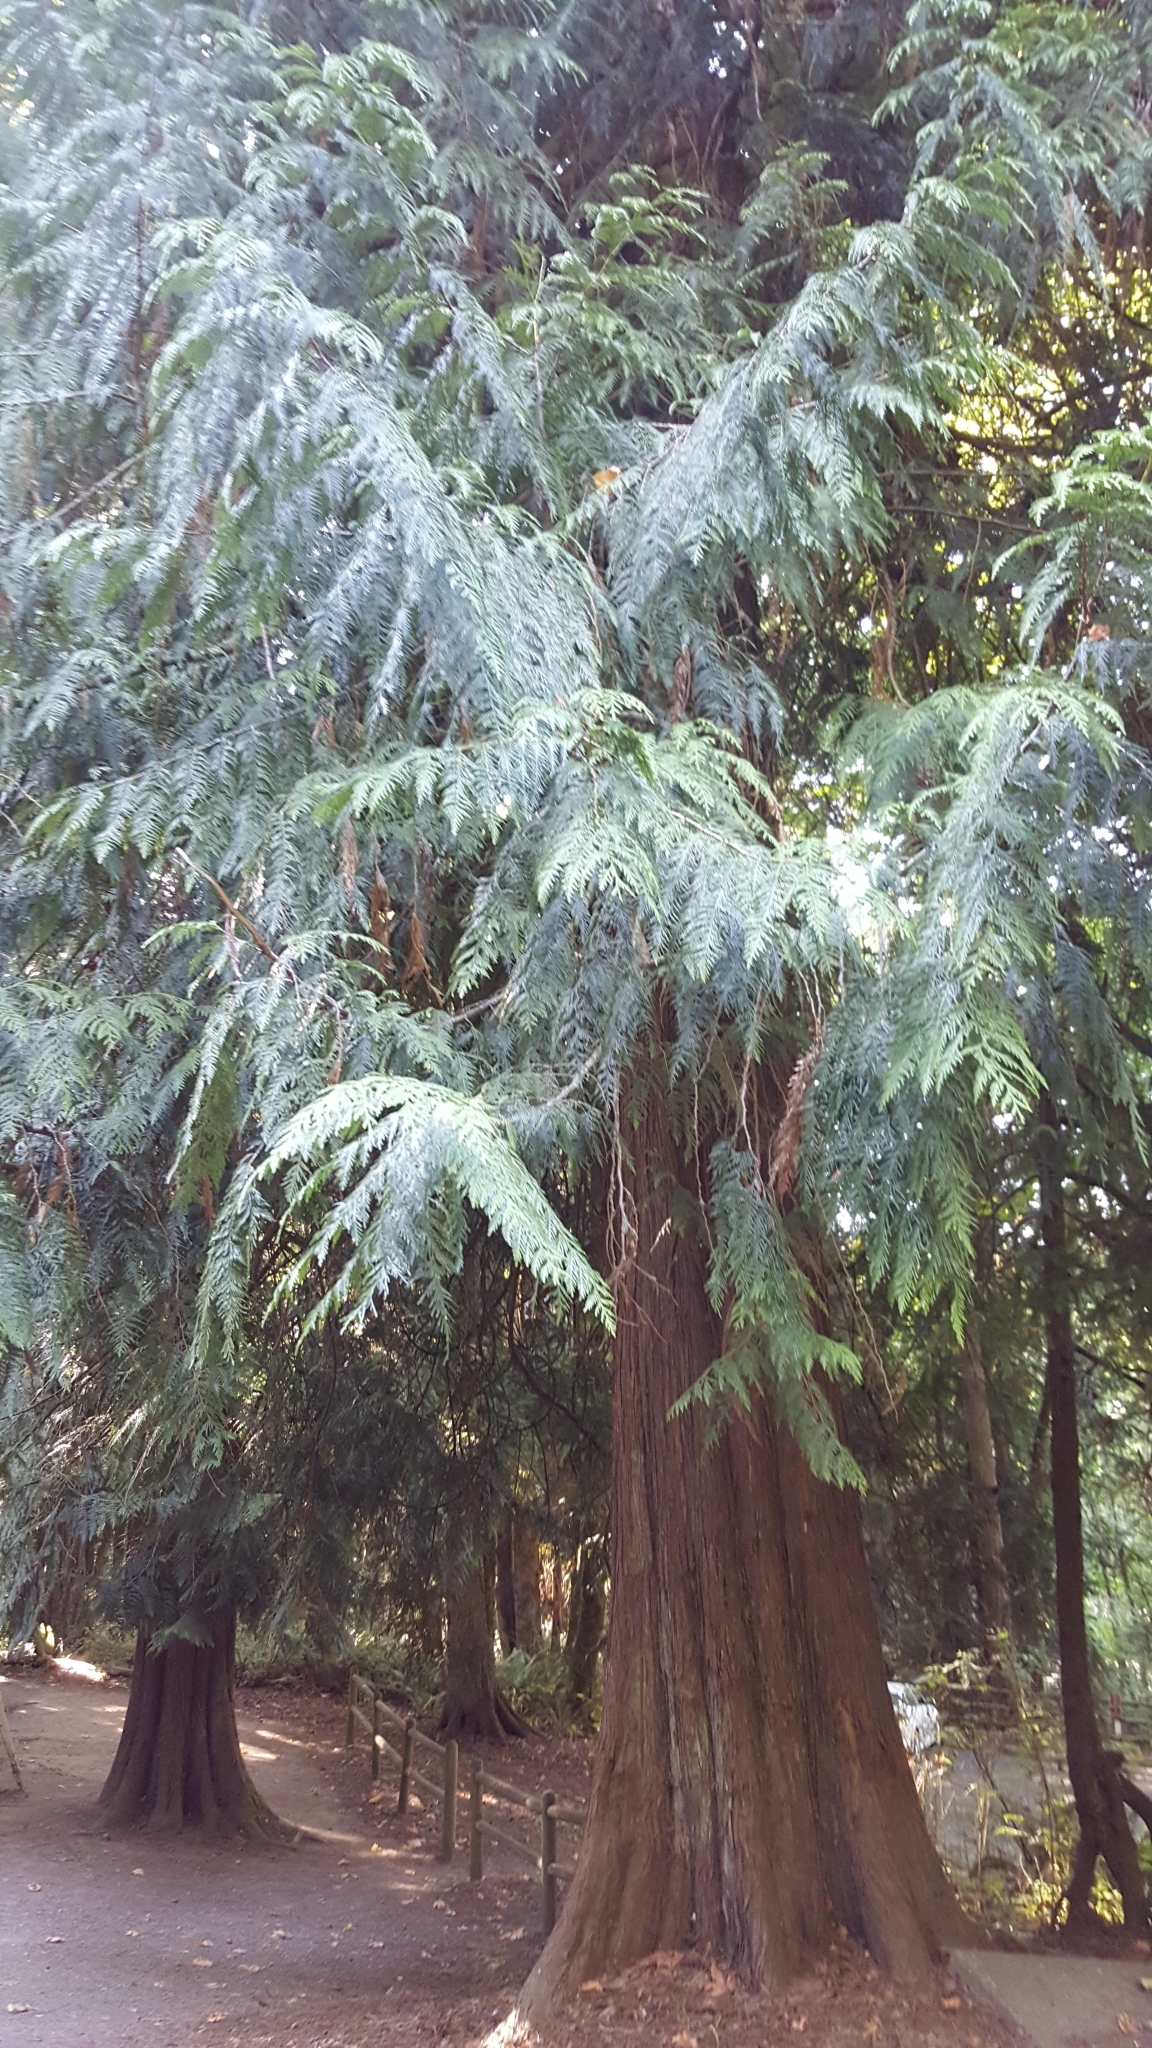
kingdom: Plantae
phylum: Tracheophyta
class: Pinopsida
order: Pinales
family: Cupressaceae
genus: Thuja
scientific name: Thuja plicata
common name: Western red-cedar
